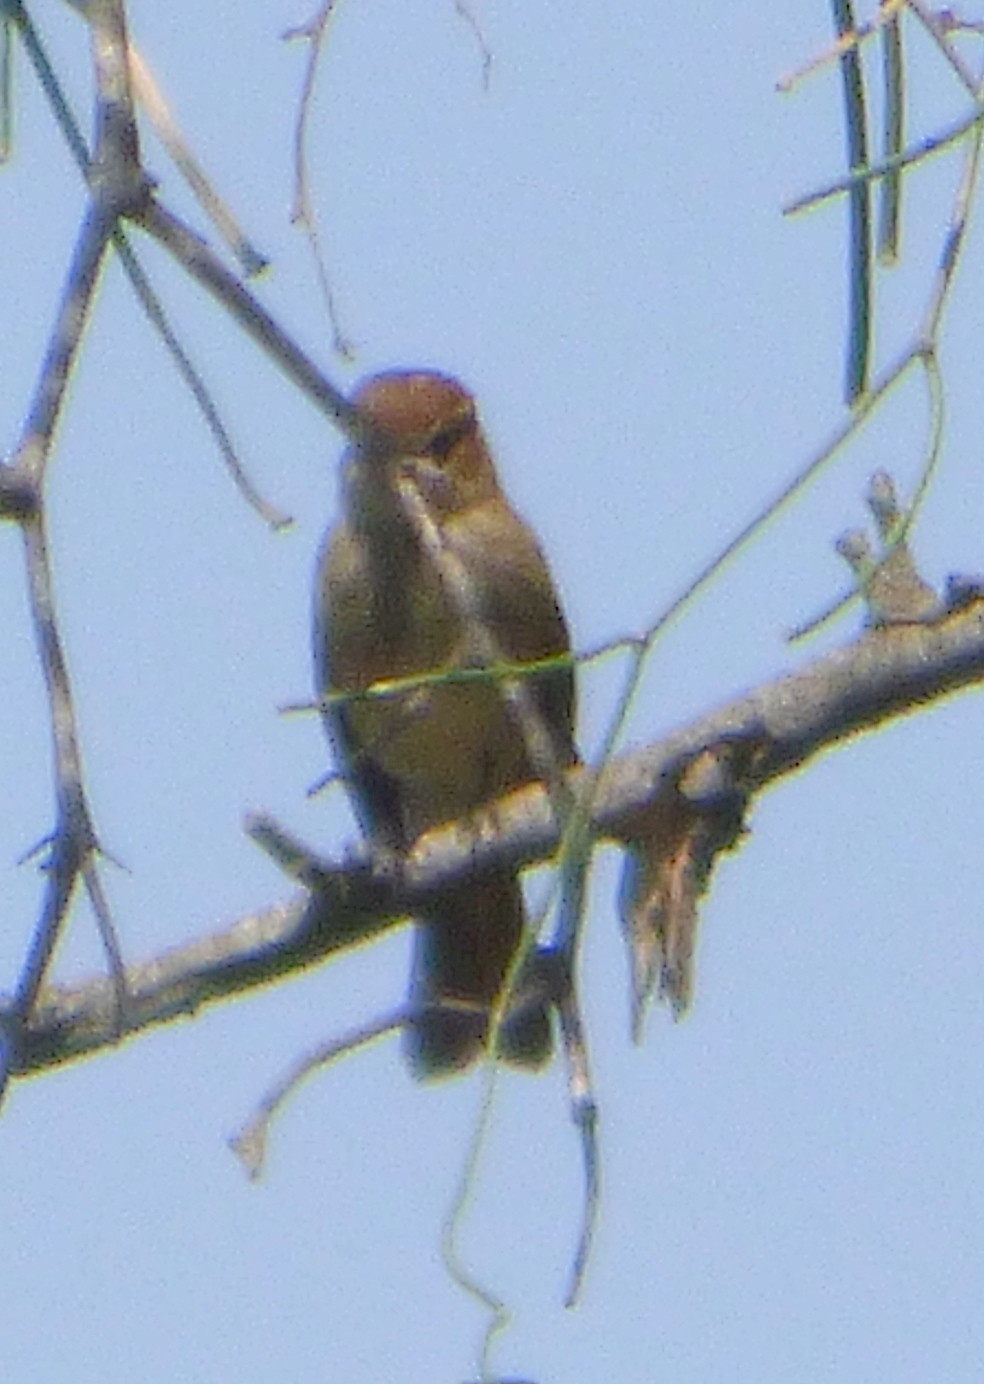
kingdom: Animalia
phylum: Chordata
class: Aves
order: Passeriformes
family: Tyrannidae
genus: Myiophobus
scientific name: Myiophobus fasciatus
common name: Bran-colored flycatcher
